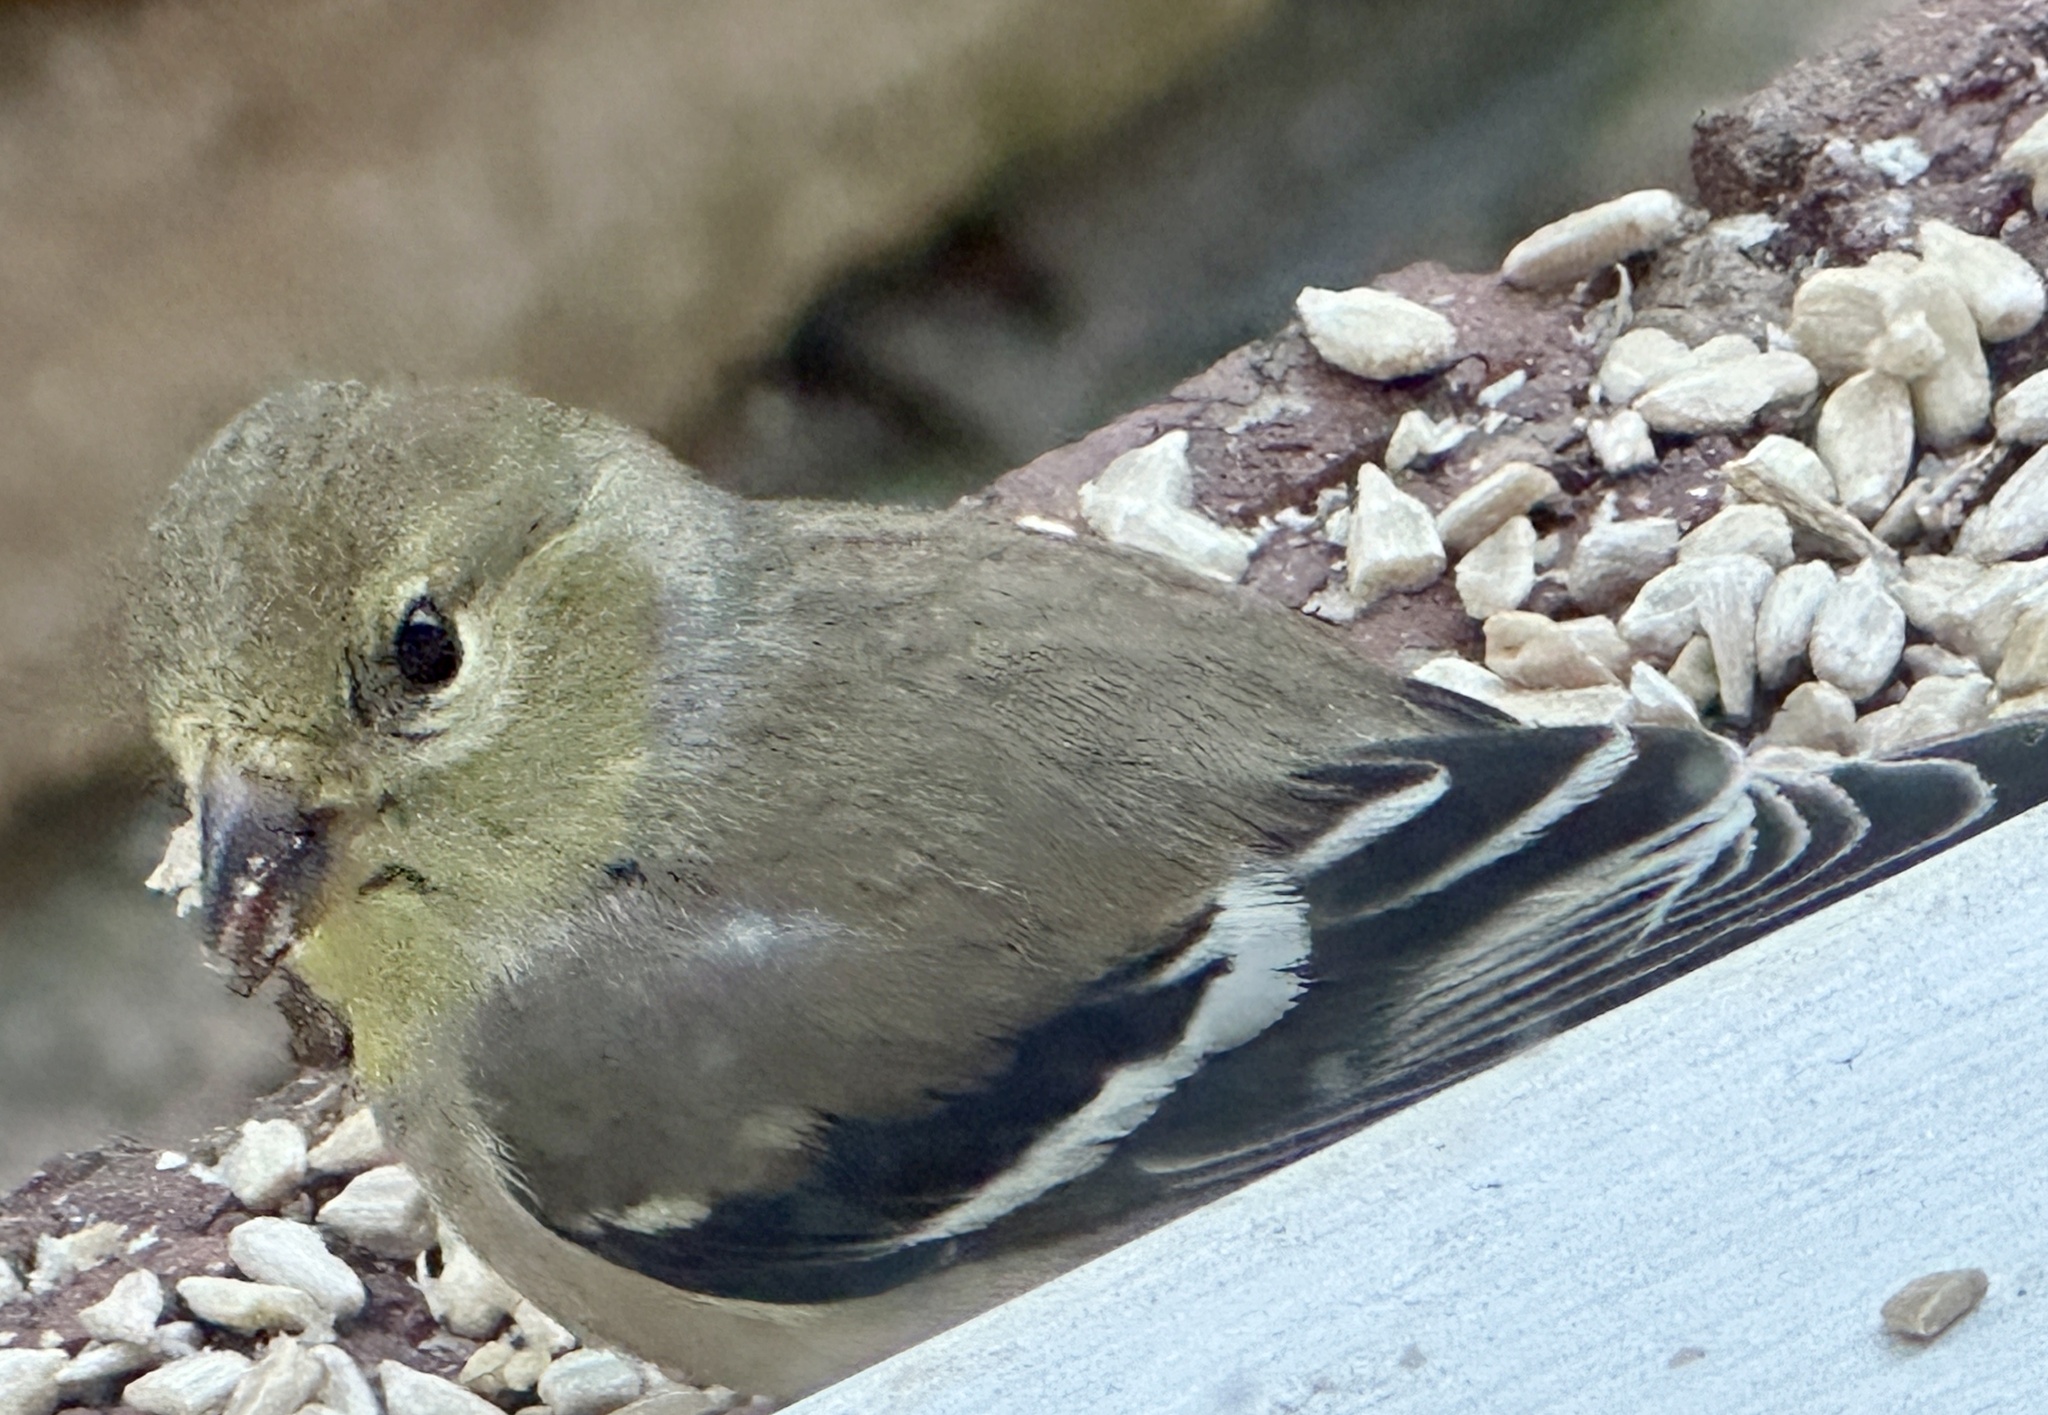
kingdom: Animalia
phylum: Chordata
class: Aves
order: Passeriformes
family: Fringillidae
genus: Spinus
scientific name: Spinus tristis
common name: American goldfinch
